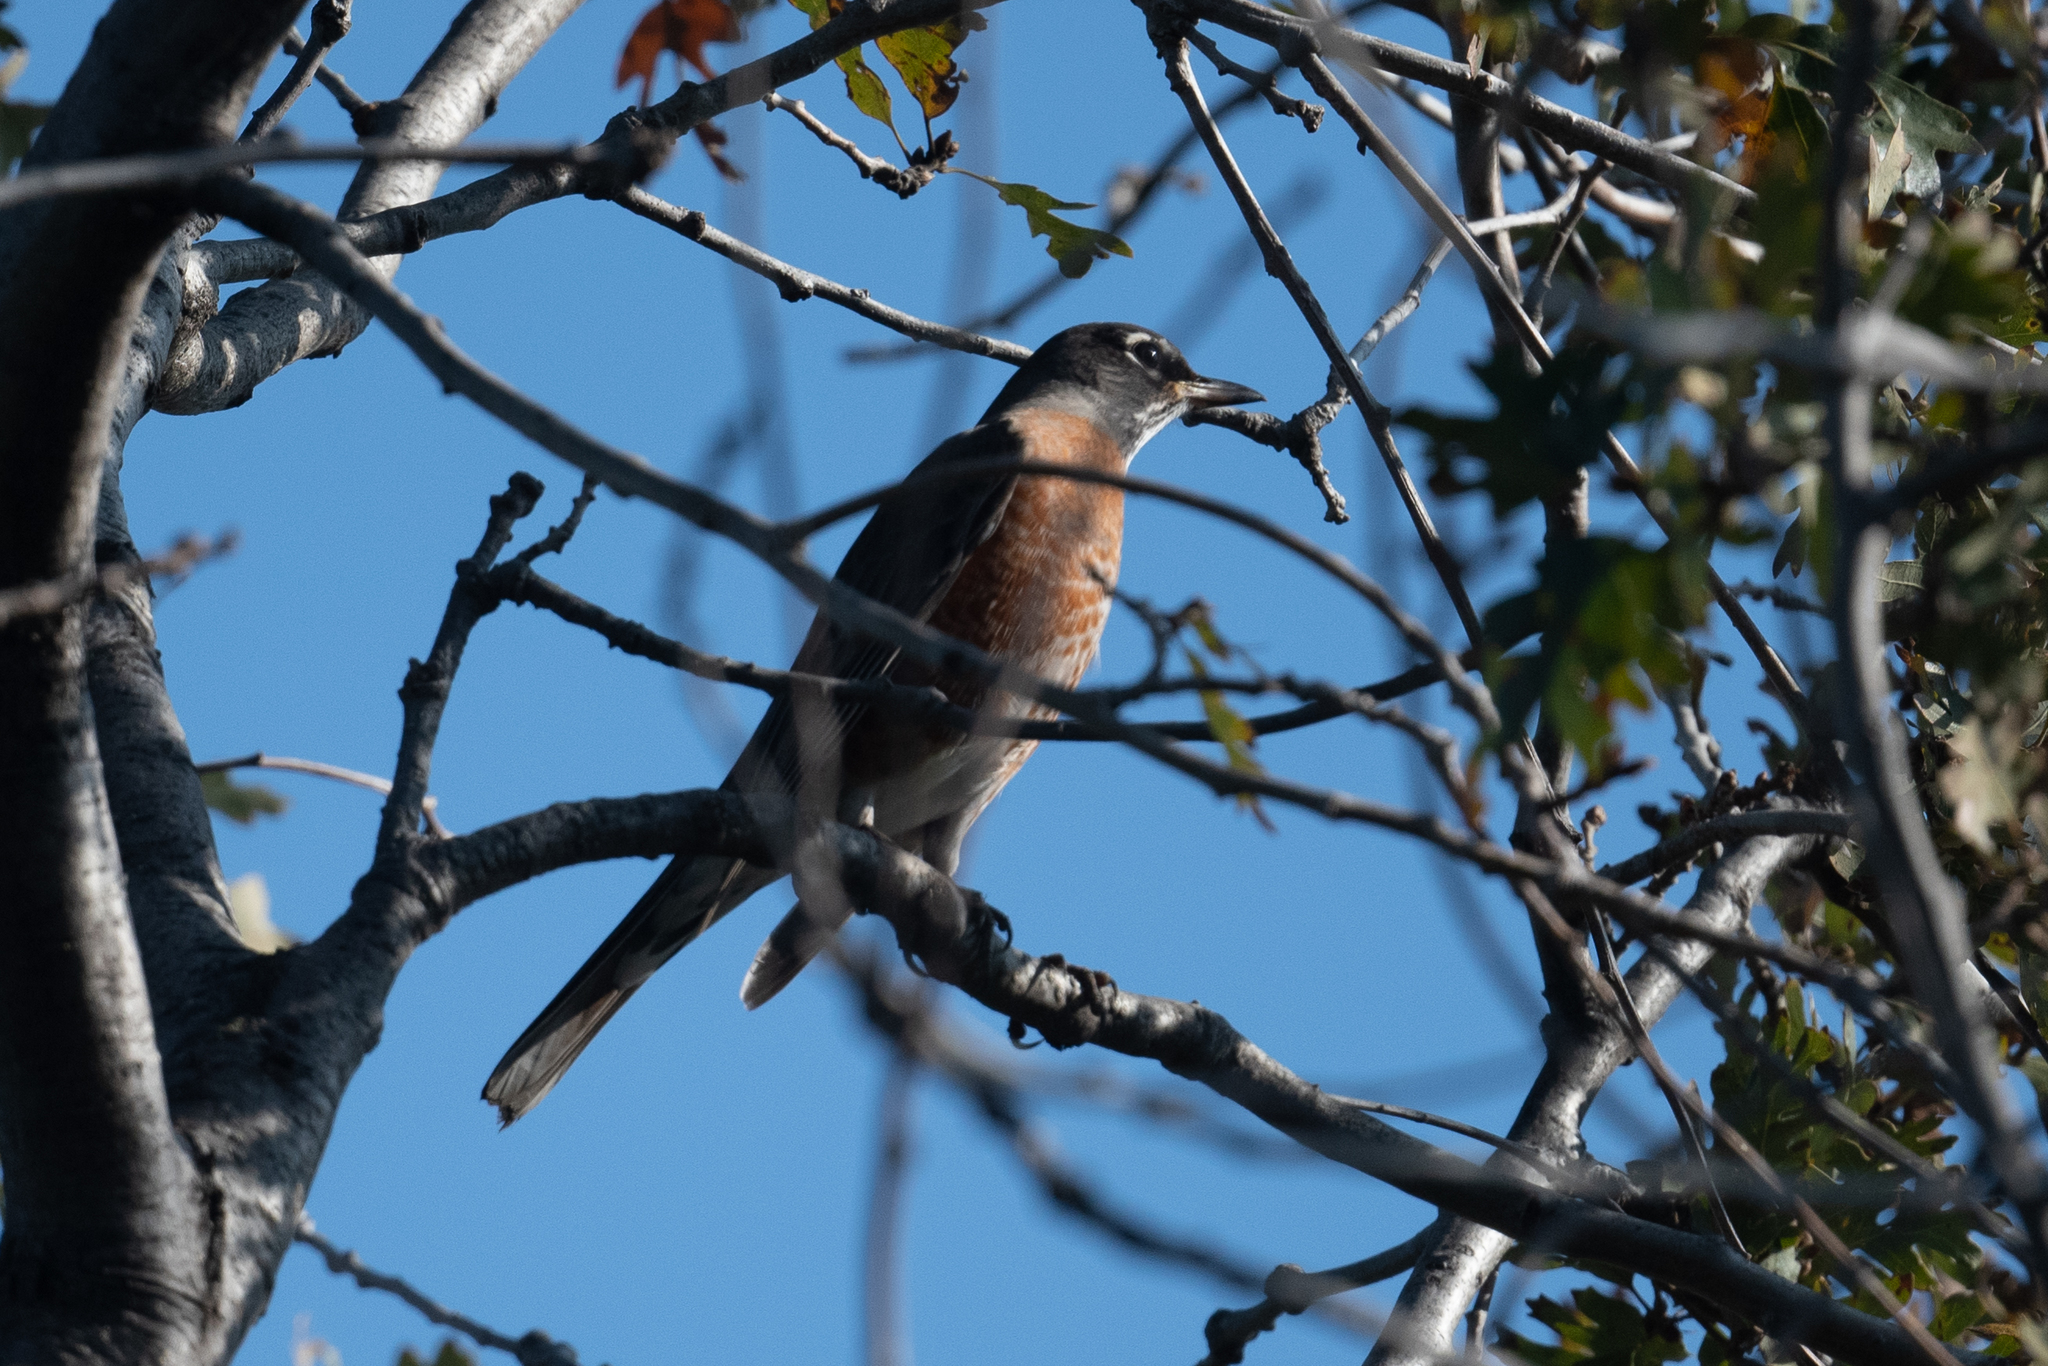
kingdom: Animalia
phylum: Chordata
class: Aves
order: Passeriformes
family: Turdidae
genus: Turdus
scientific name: Turdus migratorius
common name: American robin
